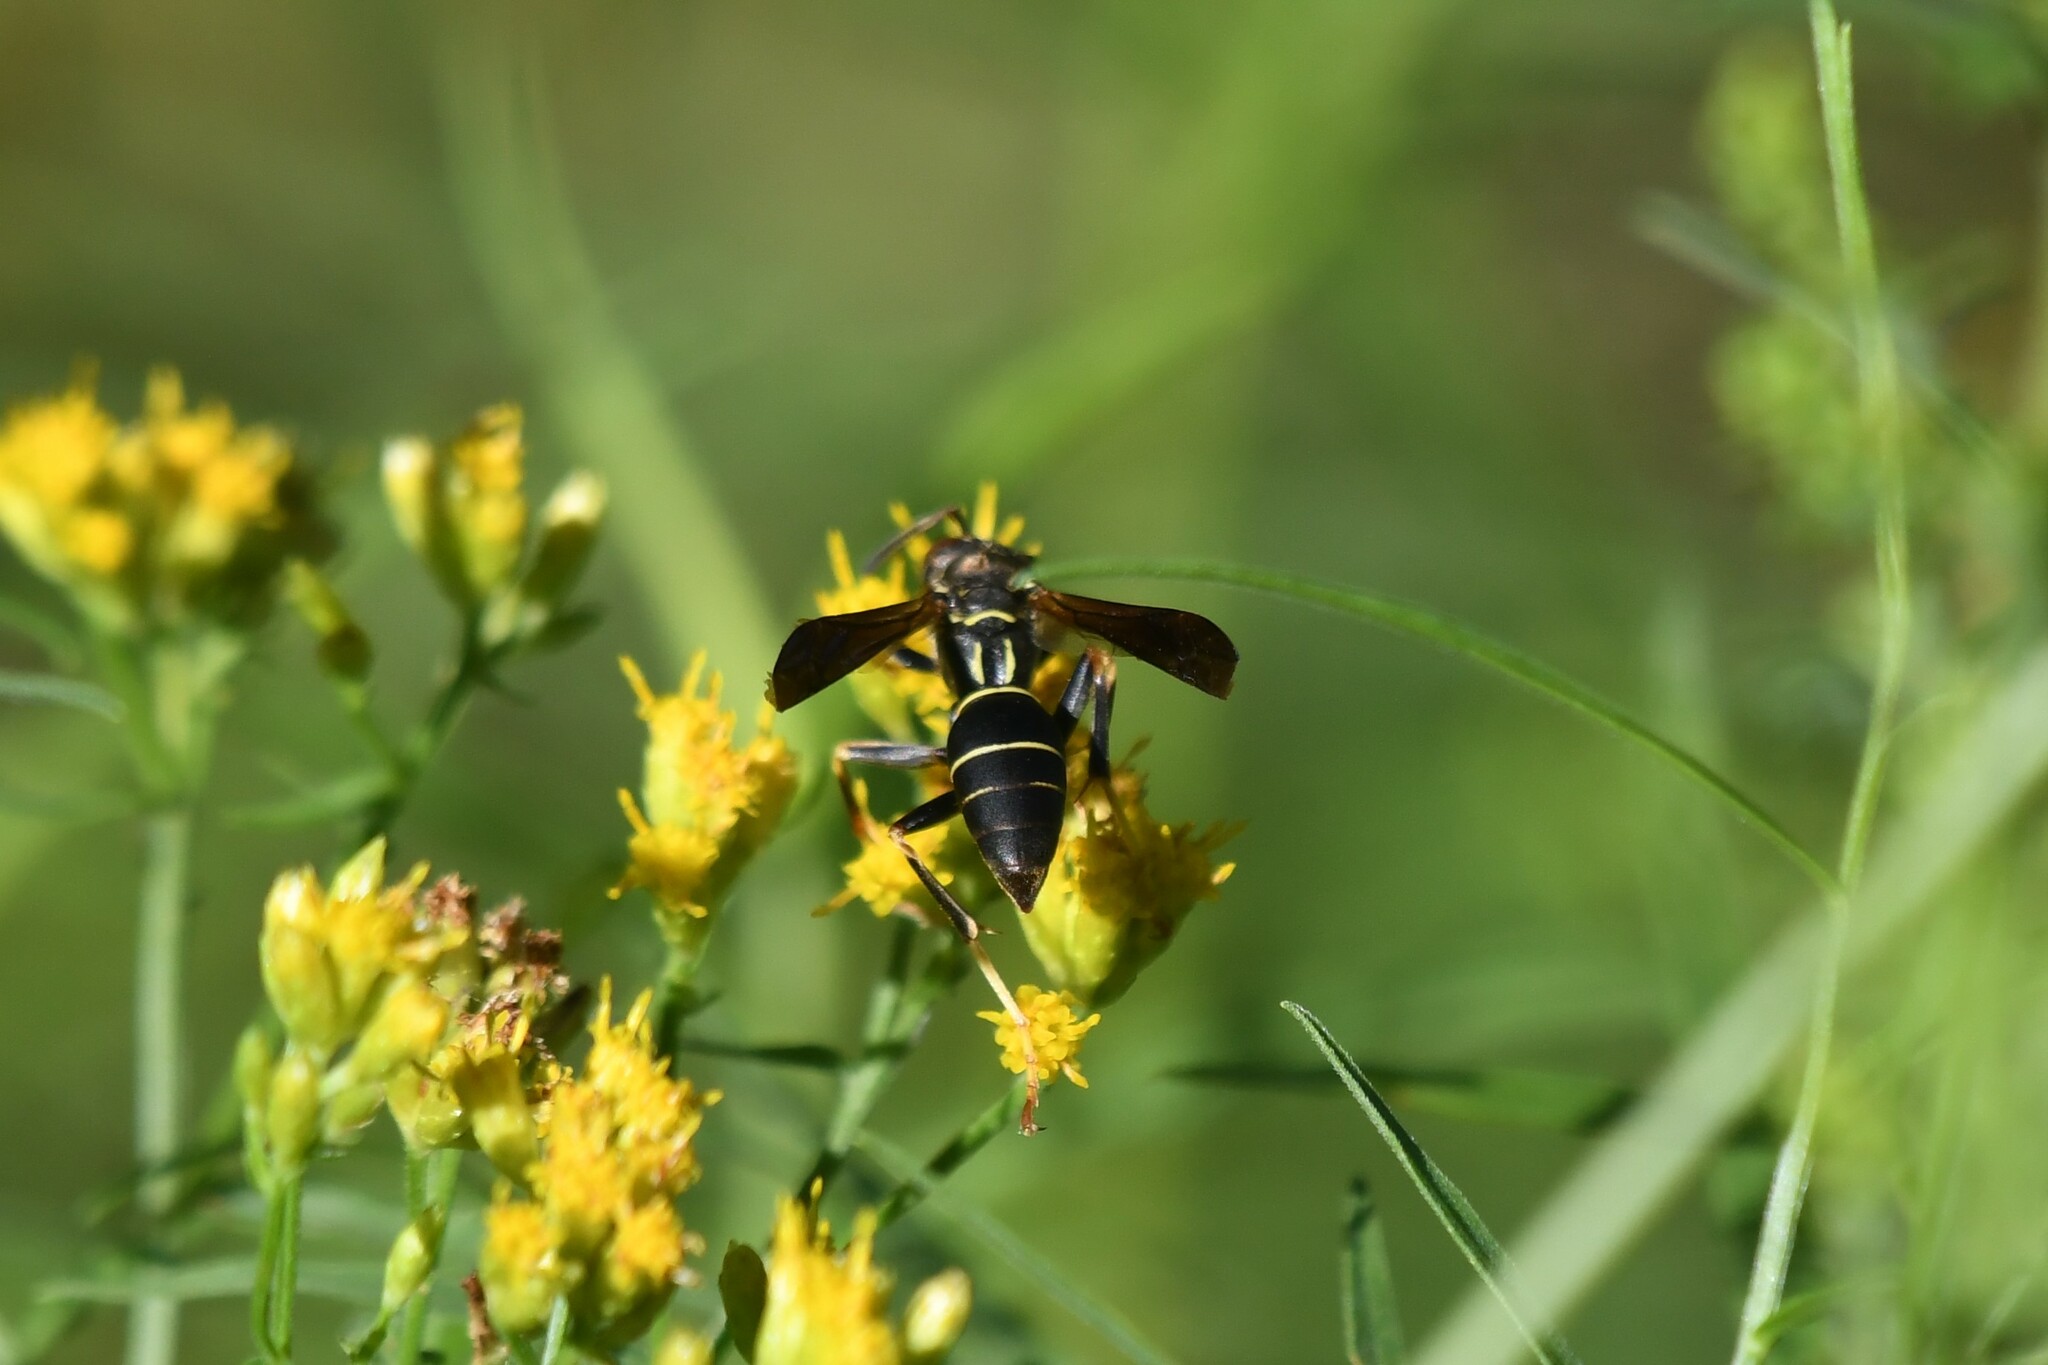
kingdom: Animalia
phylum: Arthropoda
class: Insecta
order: Hymenoptera
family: Eumenidae
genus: Polistes
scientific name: Polistes fuscatus
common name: Dark paper wasp
